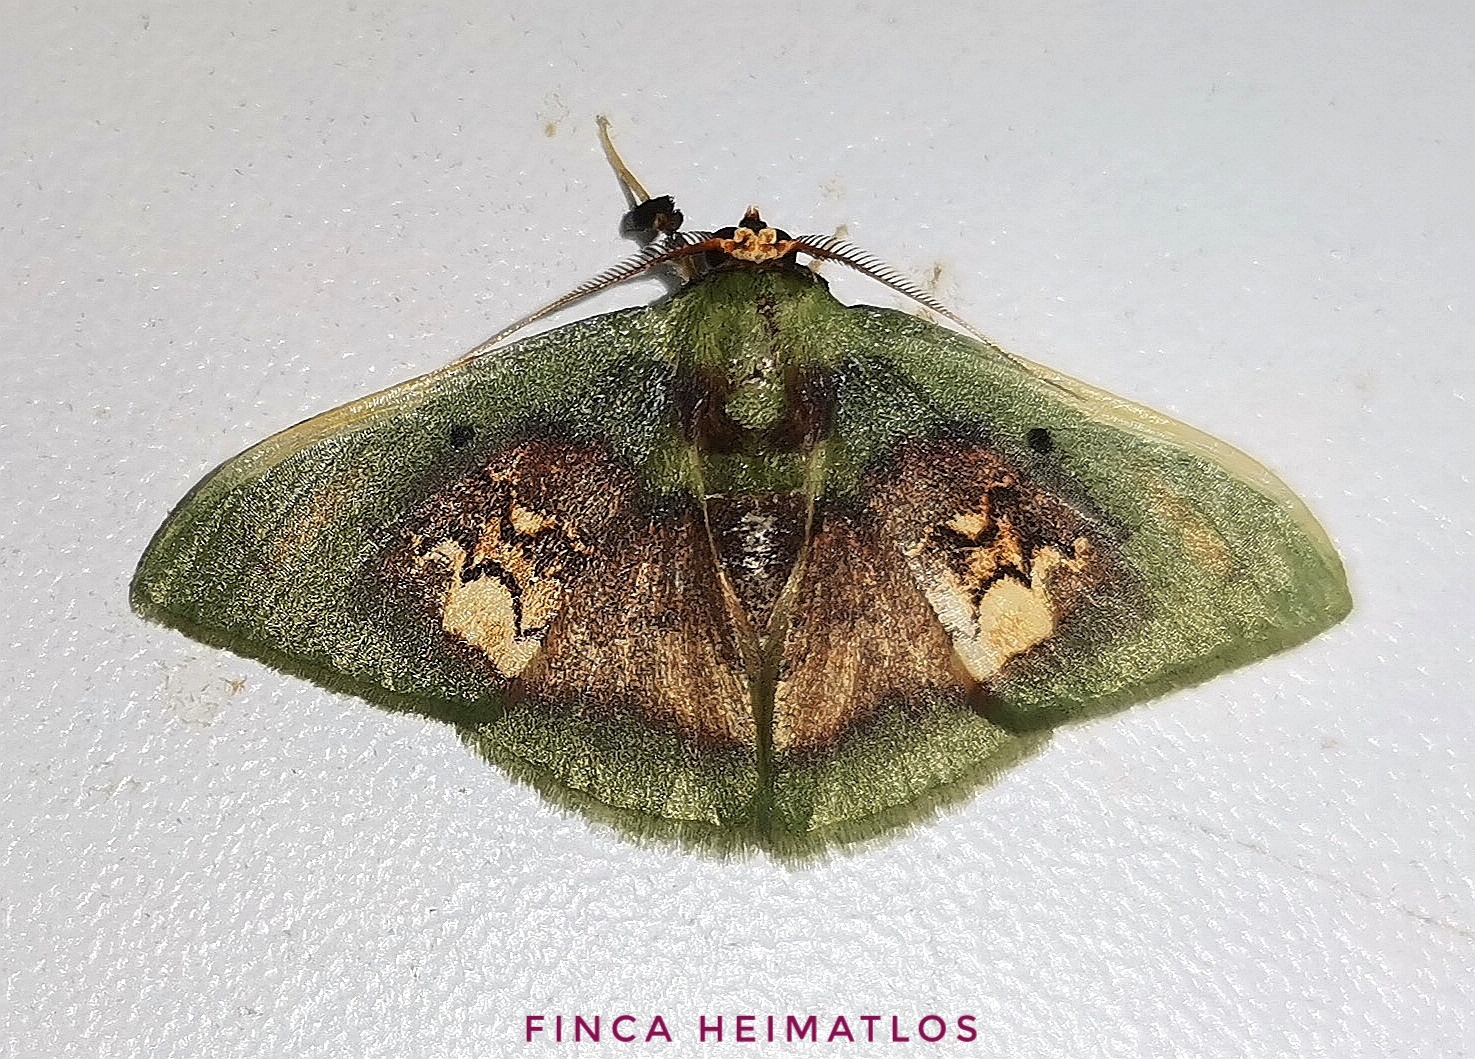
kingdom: Animalia
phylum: Arthropoda
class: Insecta
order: Lepidoptera
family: Geometridae
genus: Pyrochlora
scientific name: Pyrochlora rhanis
